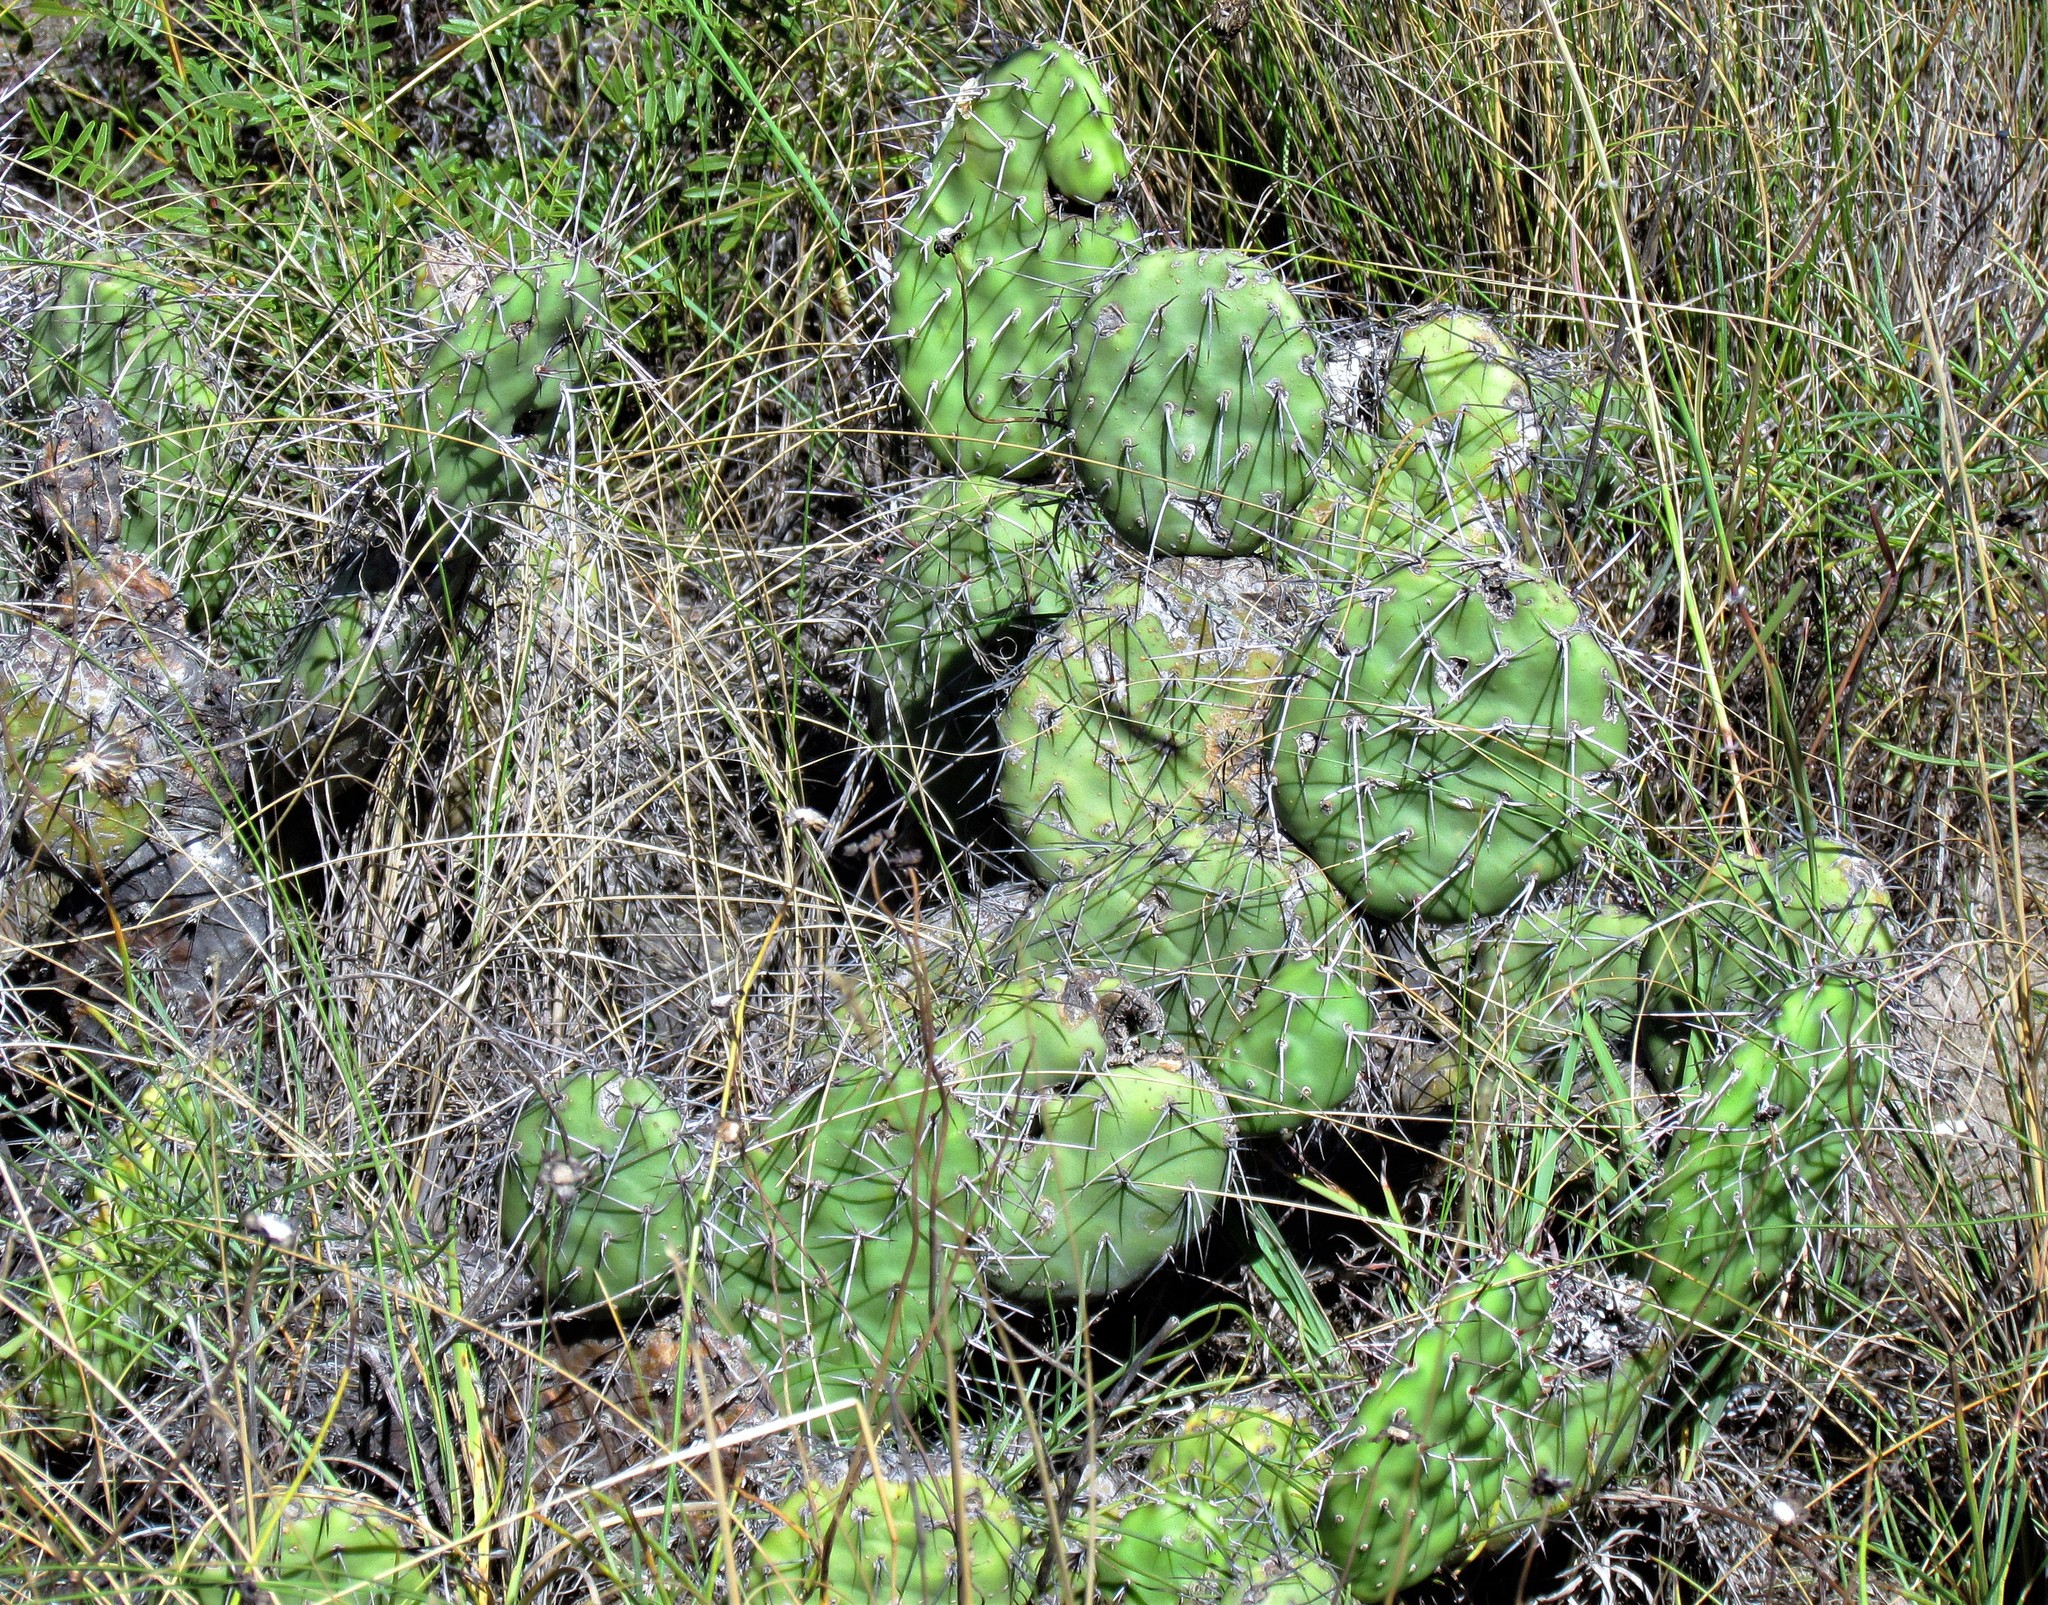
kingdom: Plantae
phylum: Tracheophyta
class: Magnoliopsida
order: Caryophyllales
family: Cactaceae
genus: Opuntia
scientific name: Opuntia sulphurea
